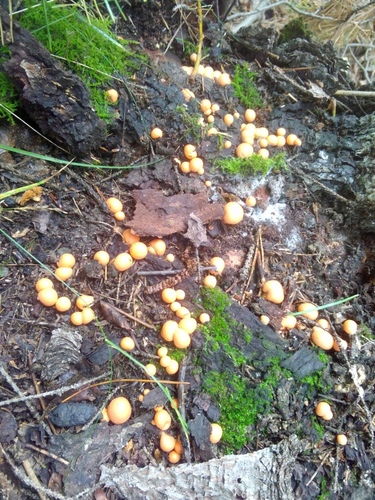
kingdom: Protozoa
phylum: Mycetozoa
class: Myxomycetes
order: Cribrariales
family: Tubiferaceae
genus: Lycogala
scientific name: Lycogala epidendrum
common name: Wolf's milk
